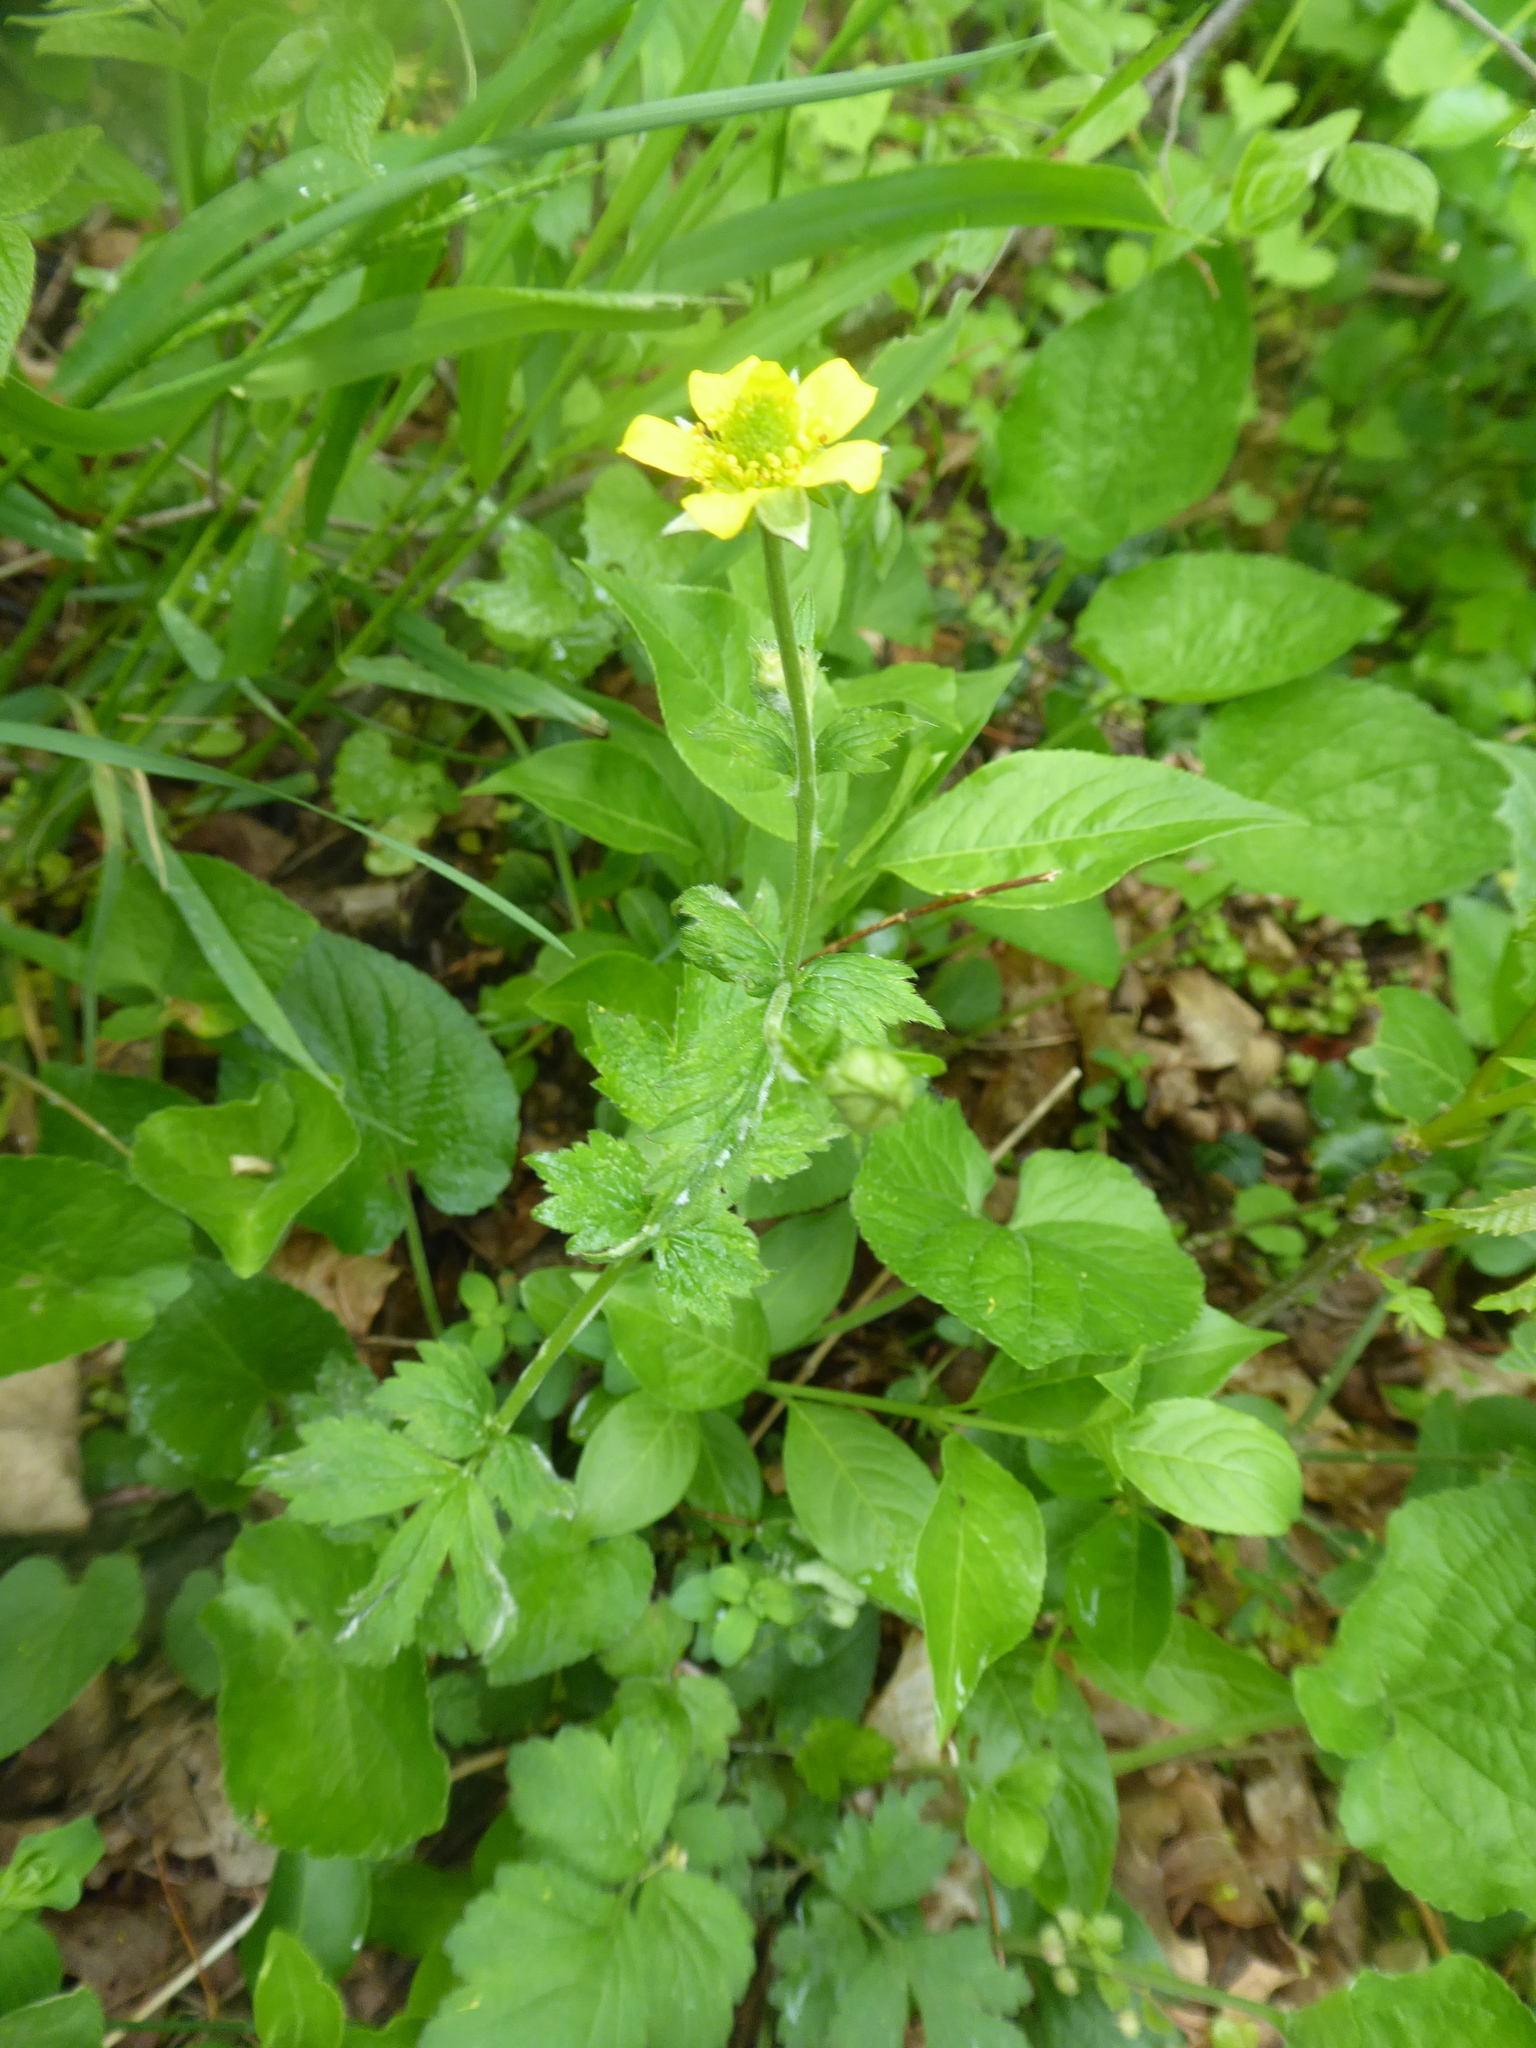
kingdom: Plantae
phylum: Tracheophyta
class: Magnoliopsida
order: Rosales
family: Rosaceae
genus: Geum
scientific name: Geum urbanum
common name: Wood avens
